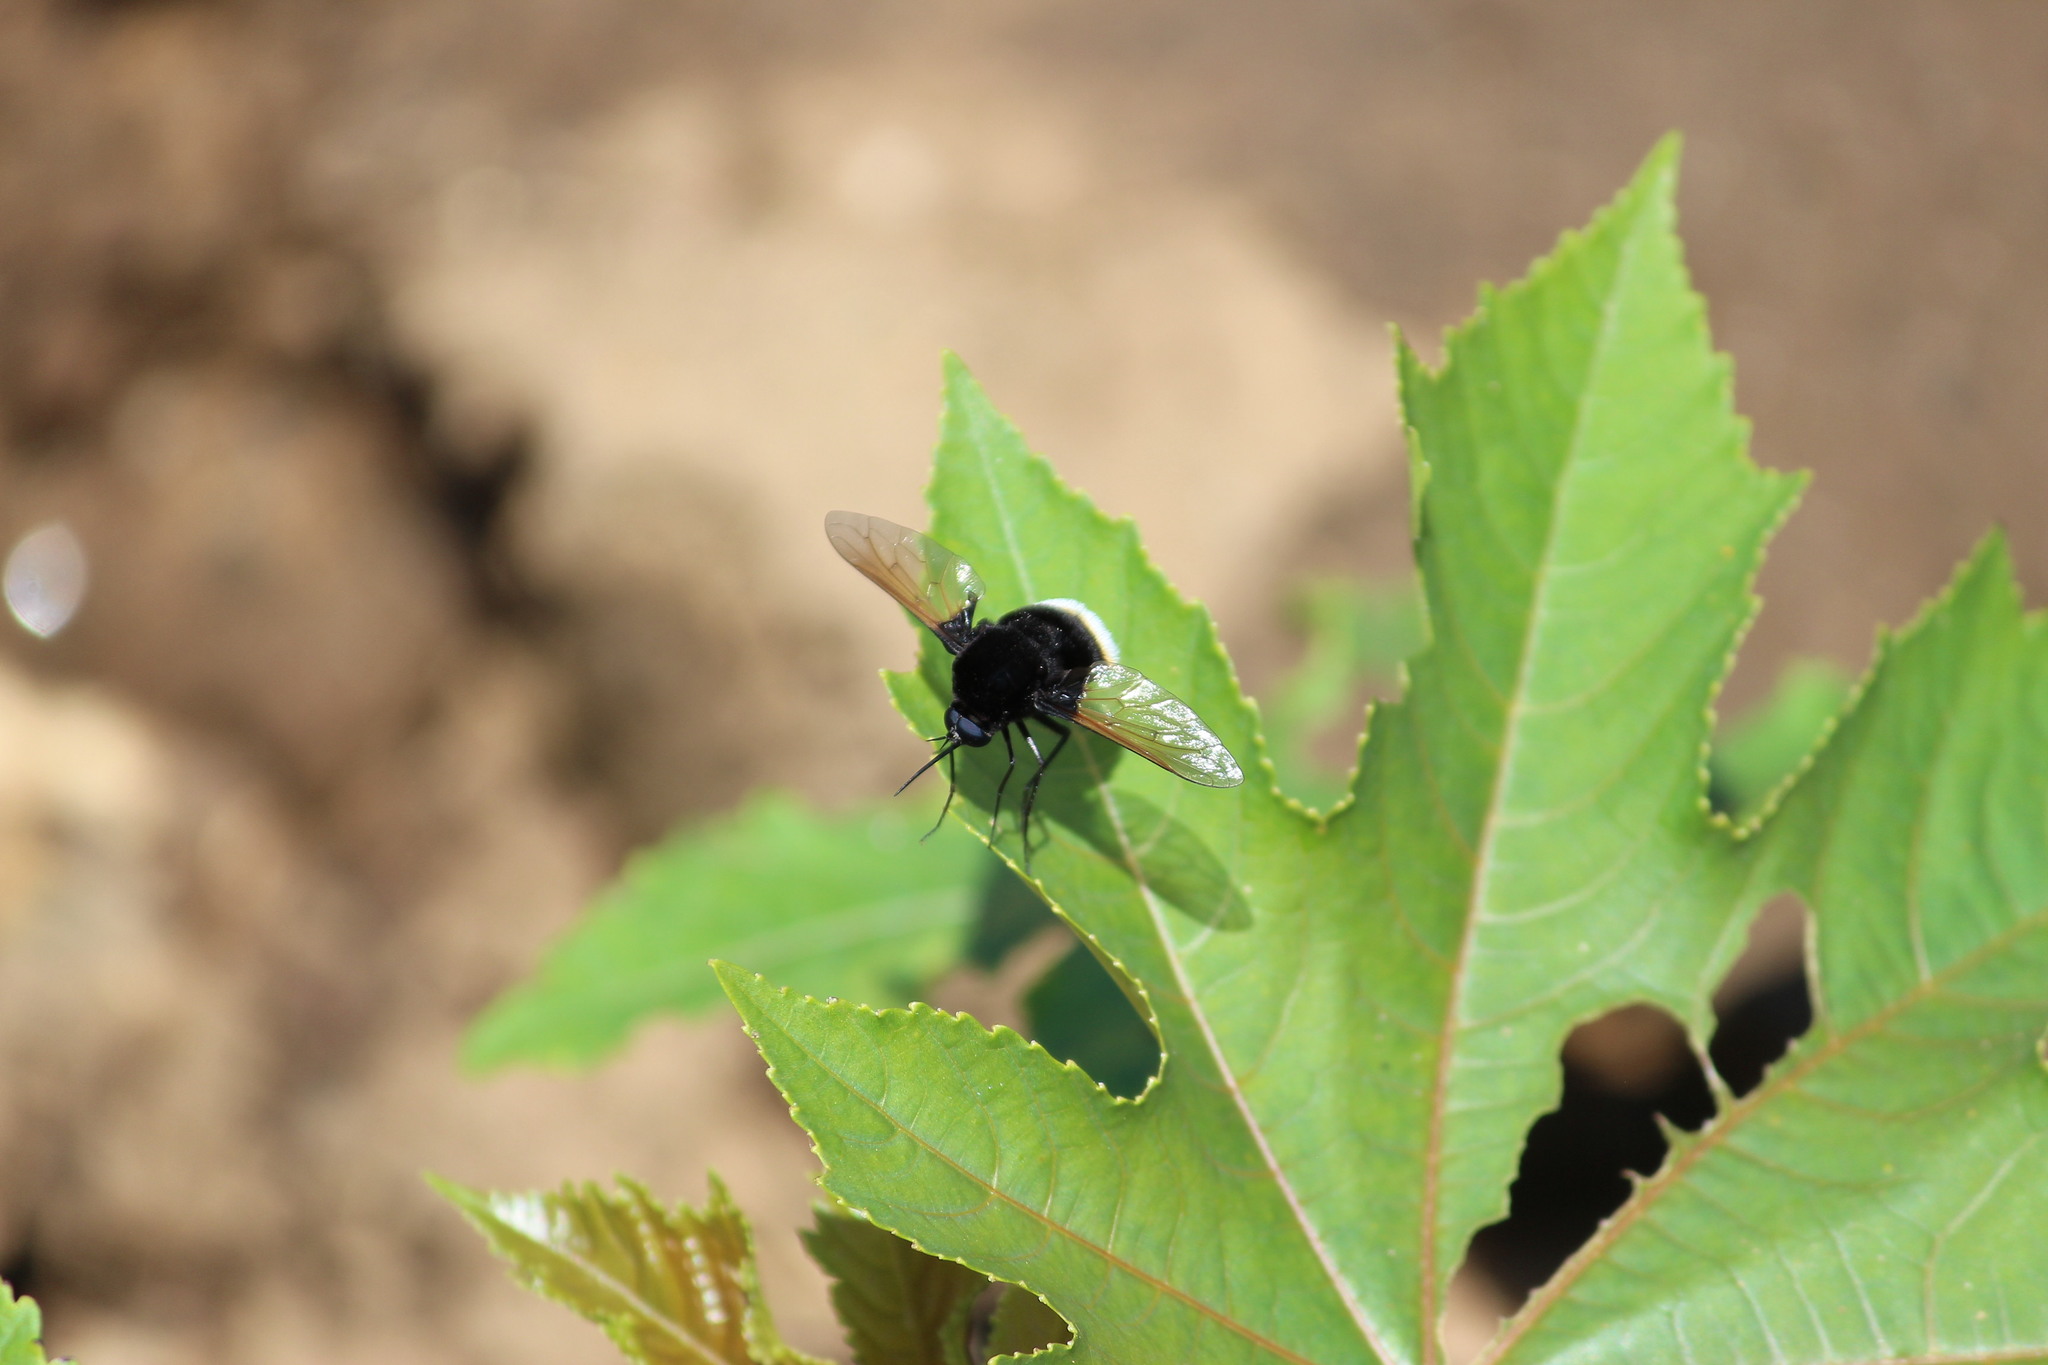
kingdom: Animalia
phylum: Arthropoda
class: Insecta
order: Diptera
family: Bombyliidae
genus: Bombomyia
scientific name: Bombomyia discoidea
